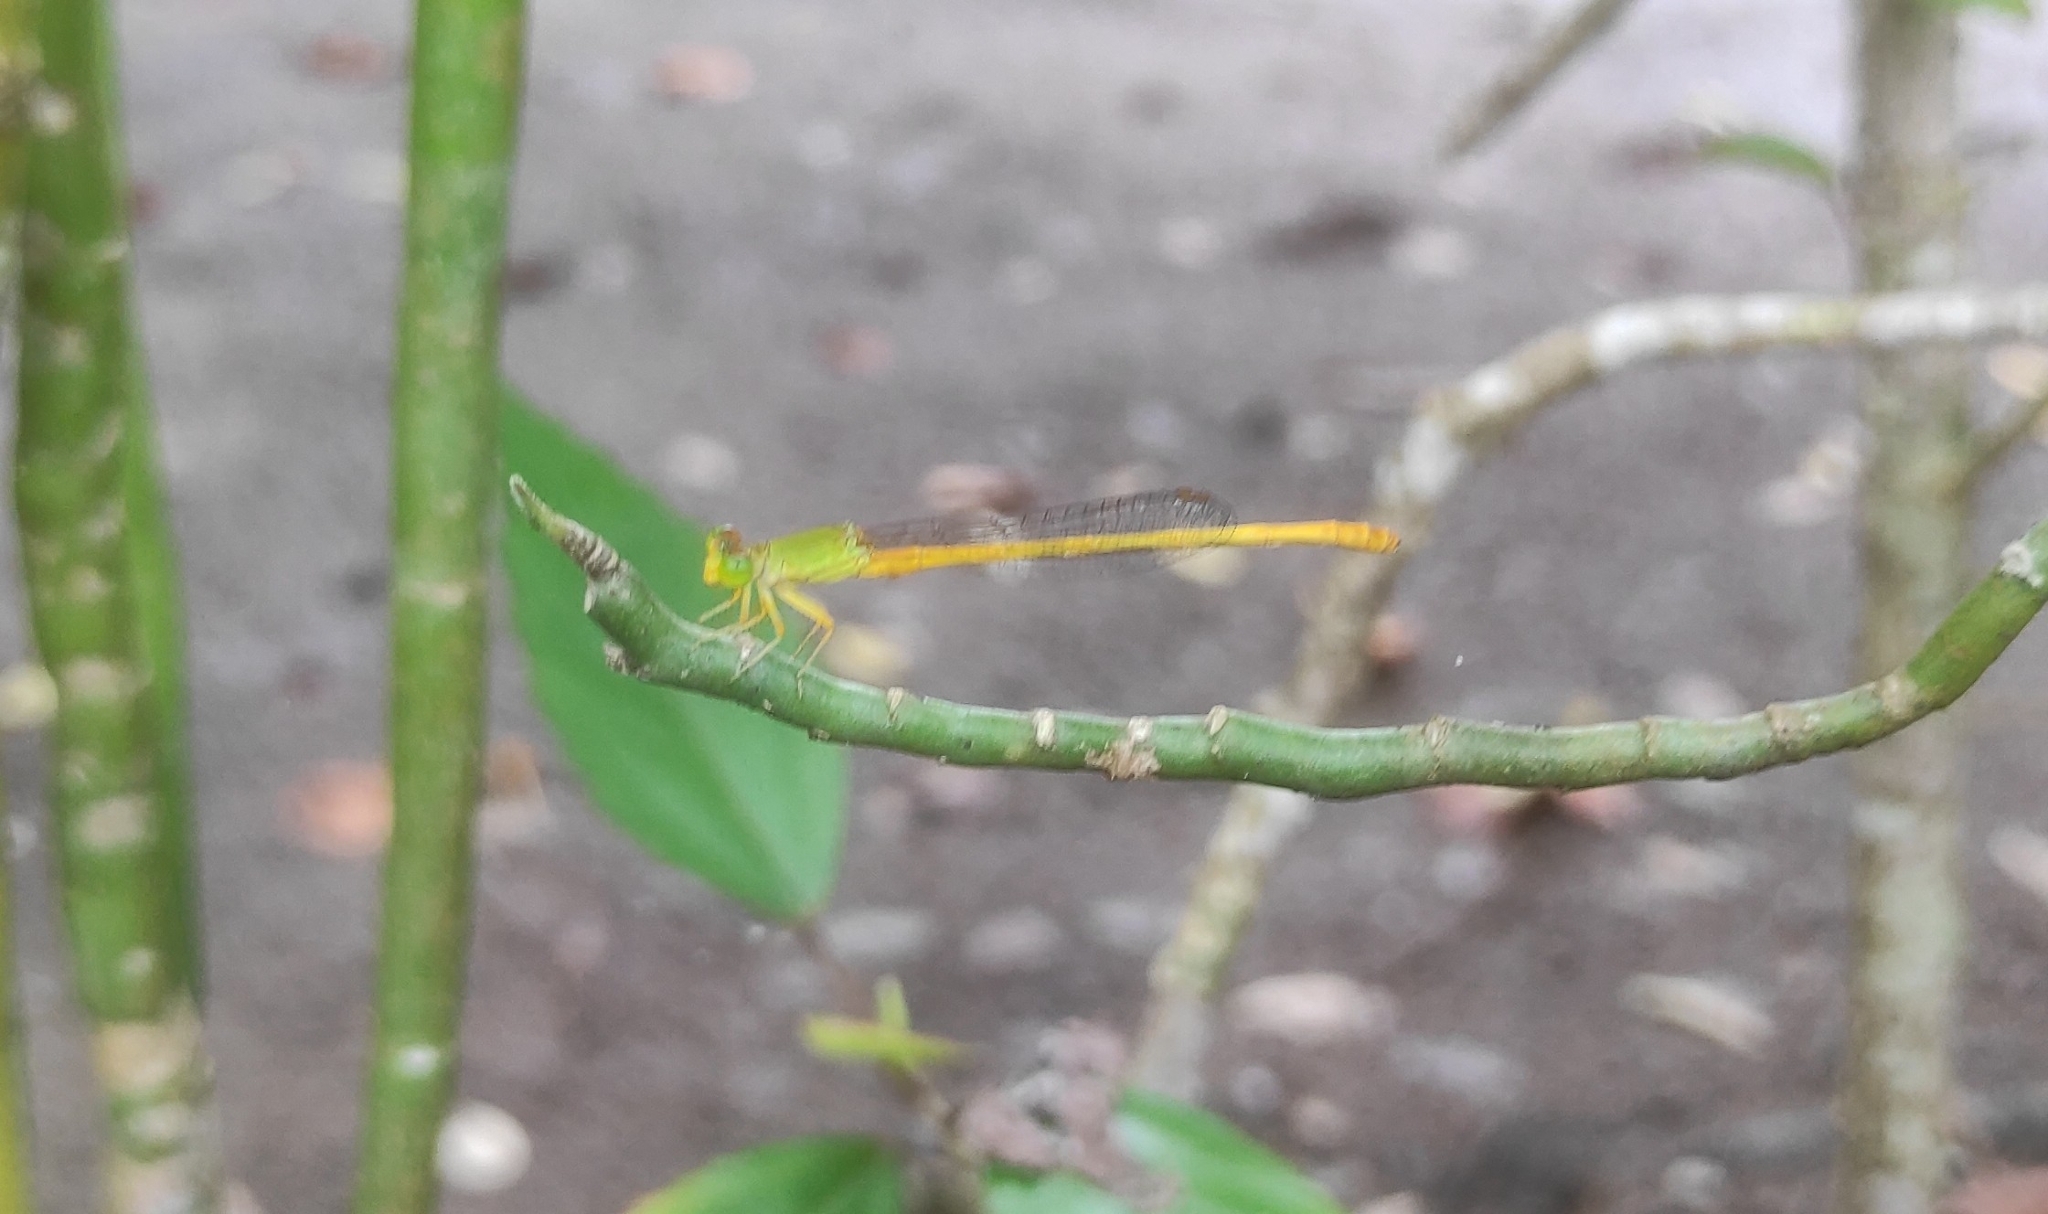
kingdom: Animalia
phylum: Arthropoda
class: Insecta
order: Odonata
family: Coenagrionidae
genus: Ceriagrion
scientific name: Ceriagrion coromandelianum
